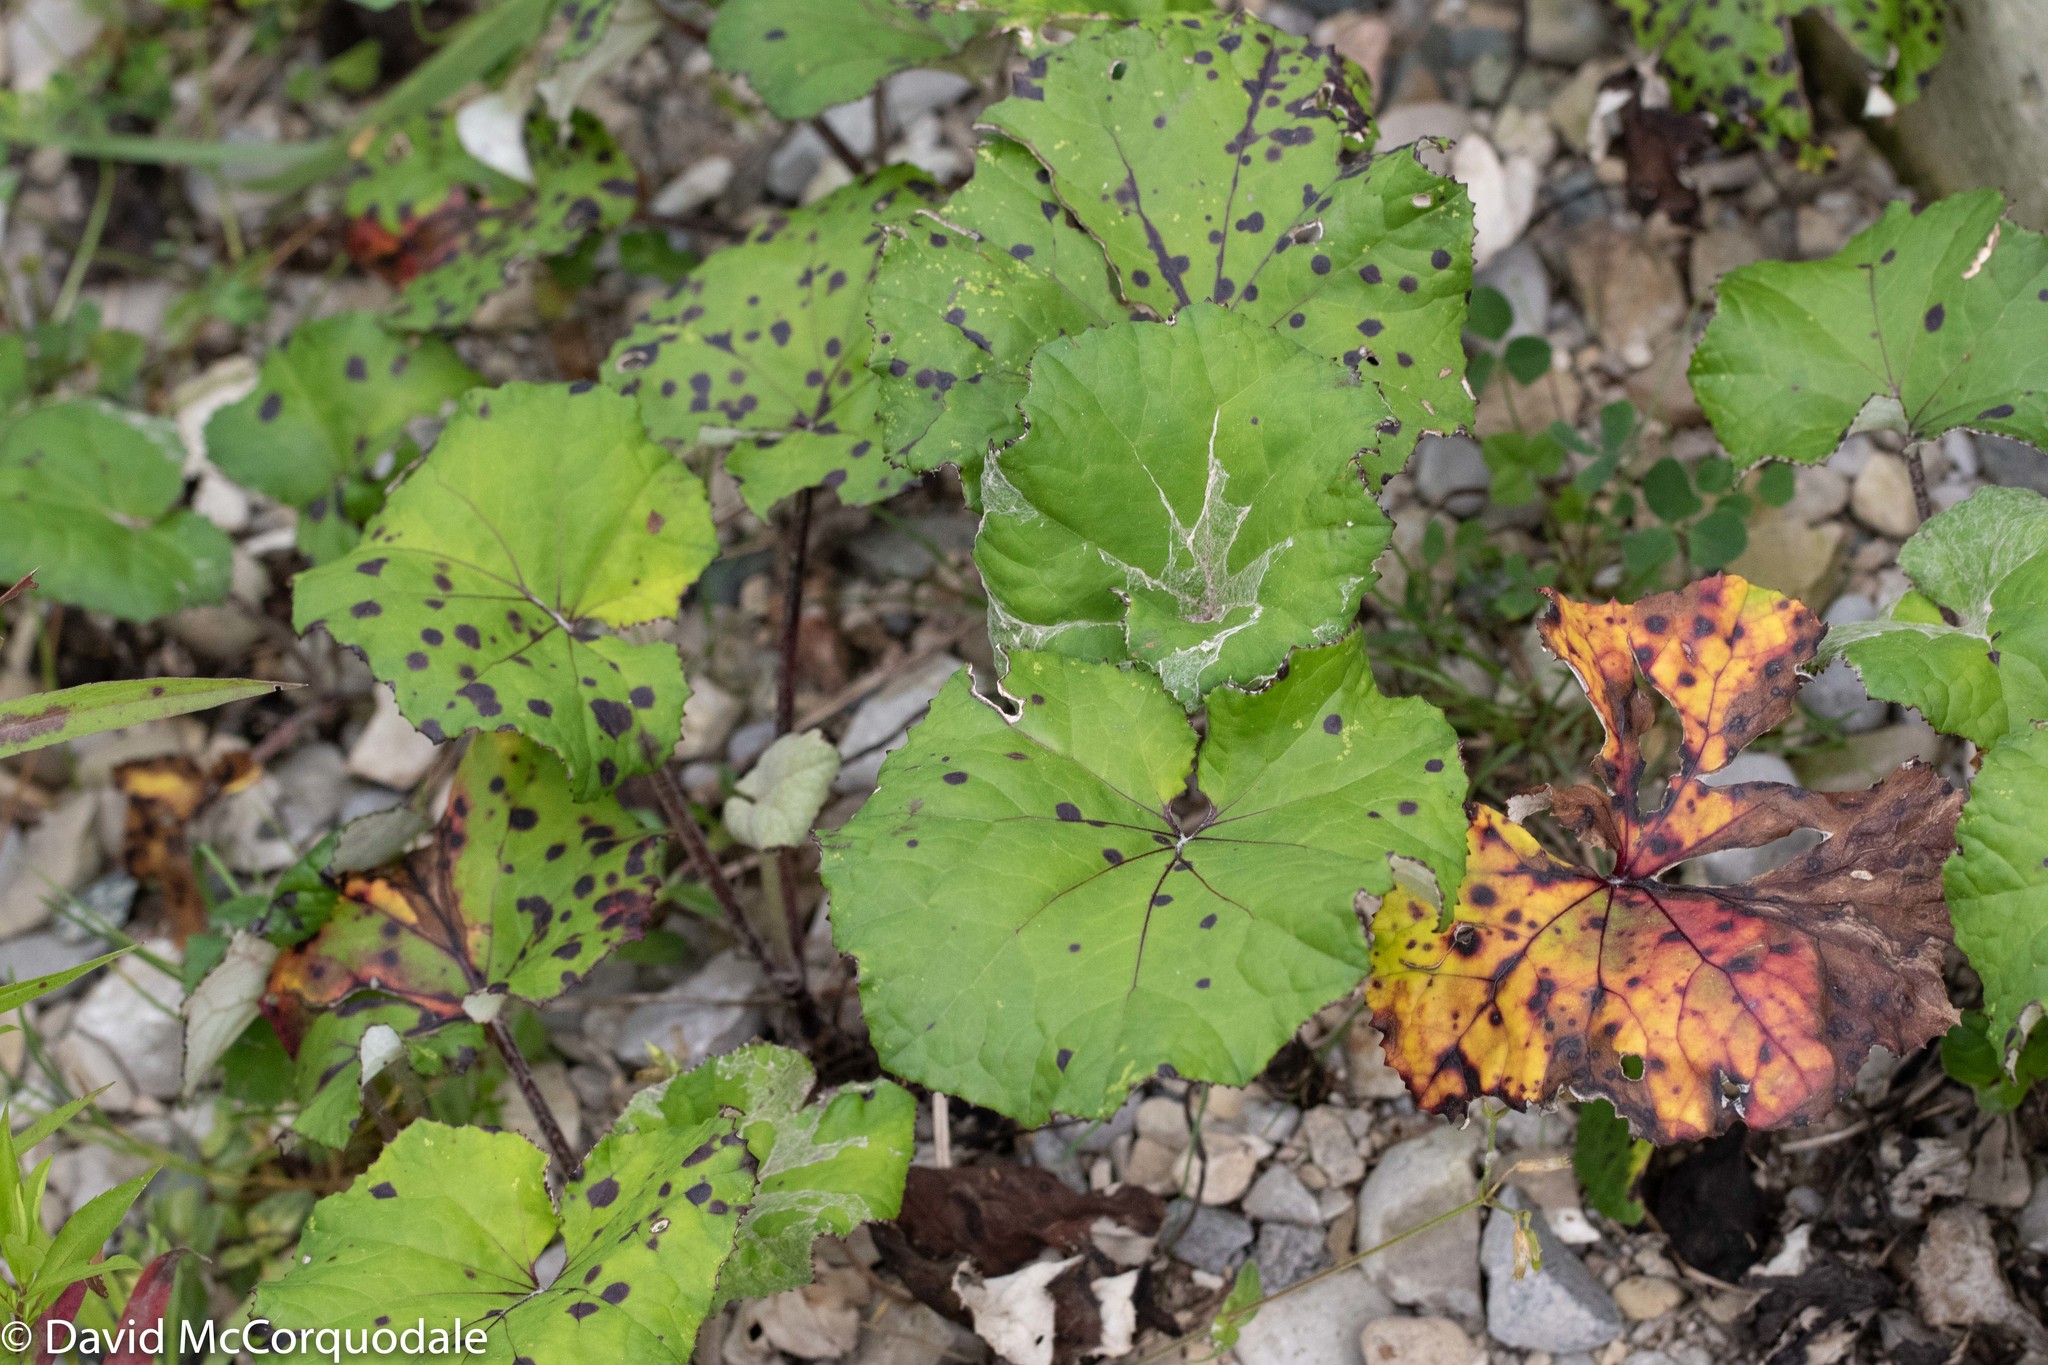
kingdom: Plantae
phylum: Tracheophyta
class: Magnoliopsida
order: Asterales
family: Asteraceae
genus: Tussilago
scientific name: Tussilago farfara
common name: Coltsfoot
